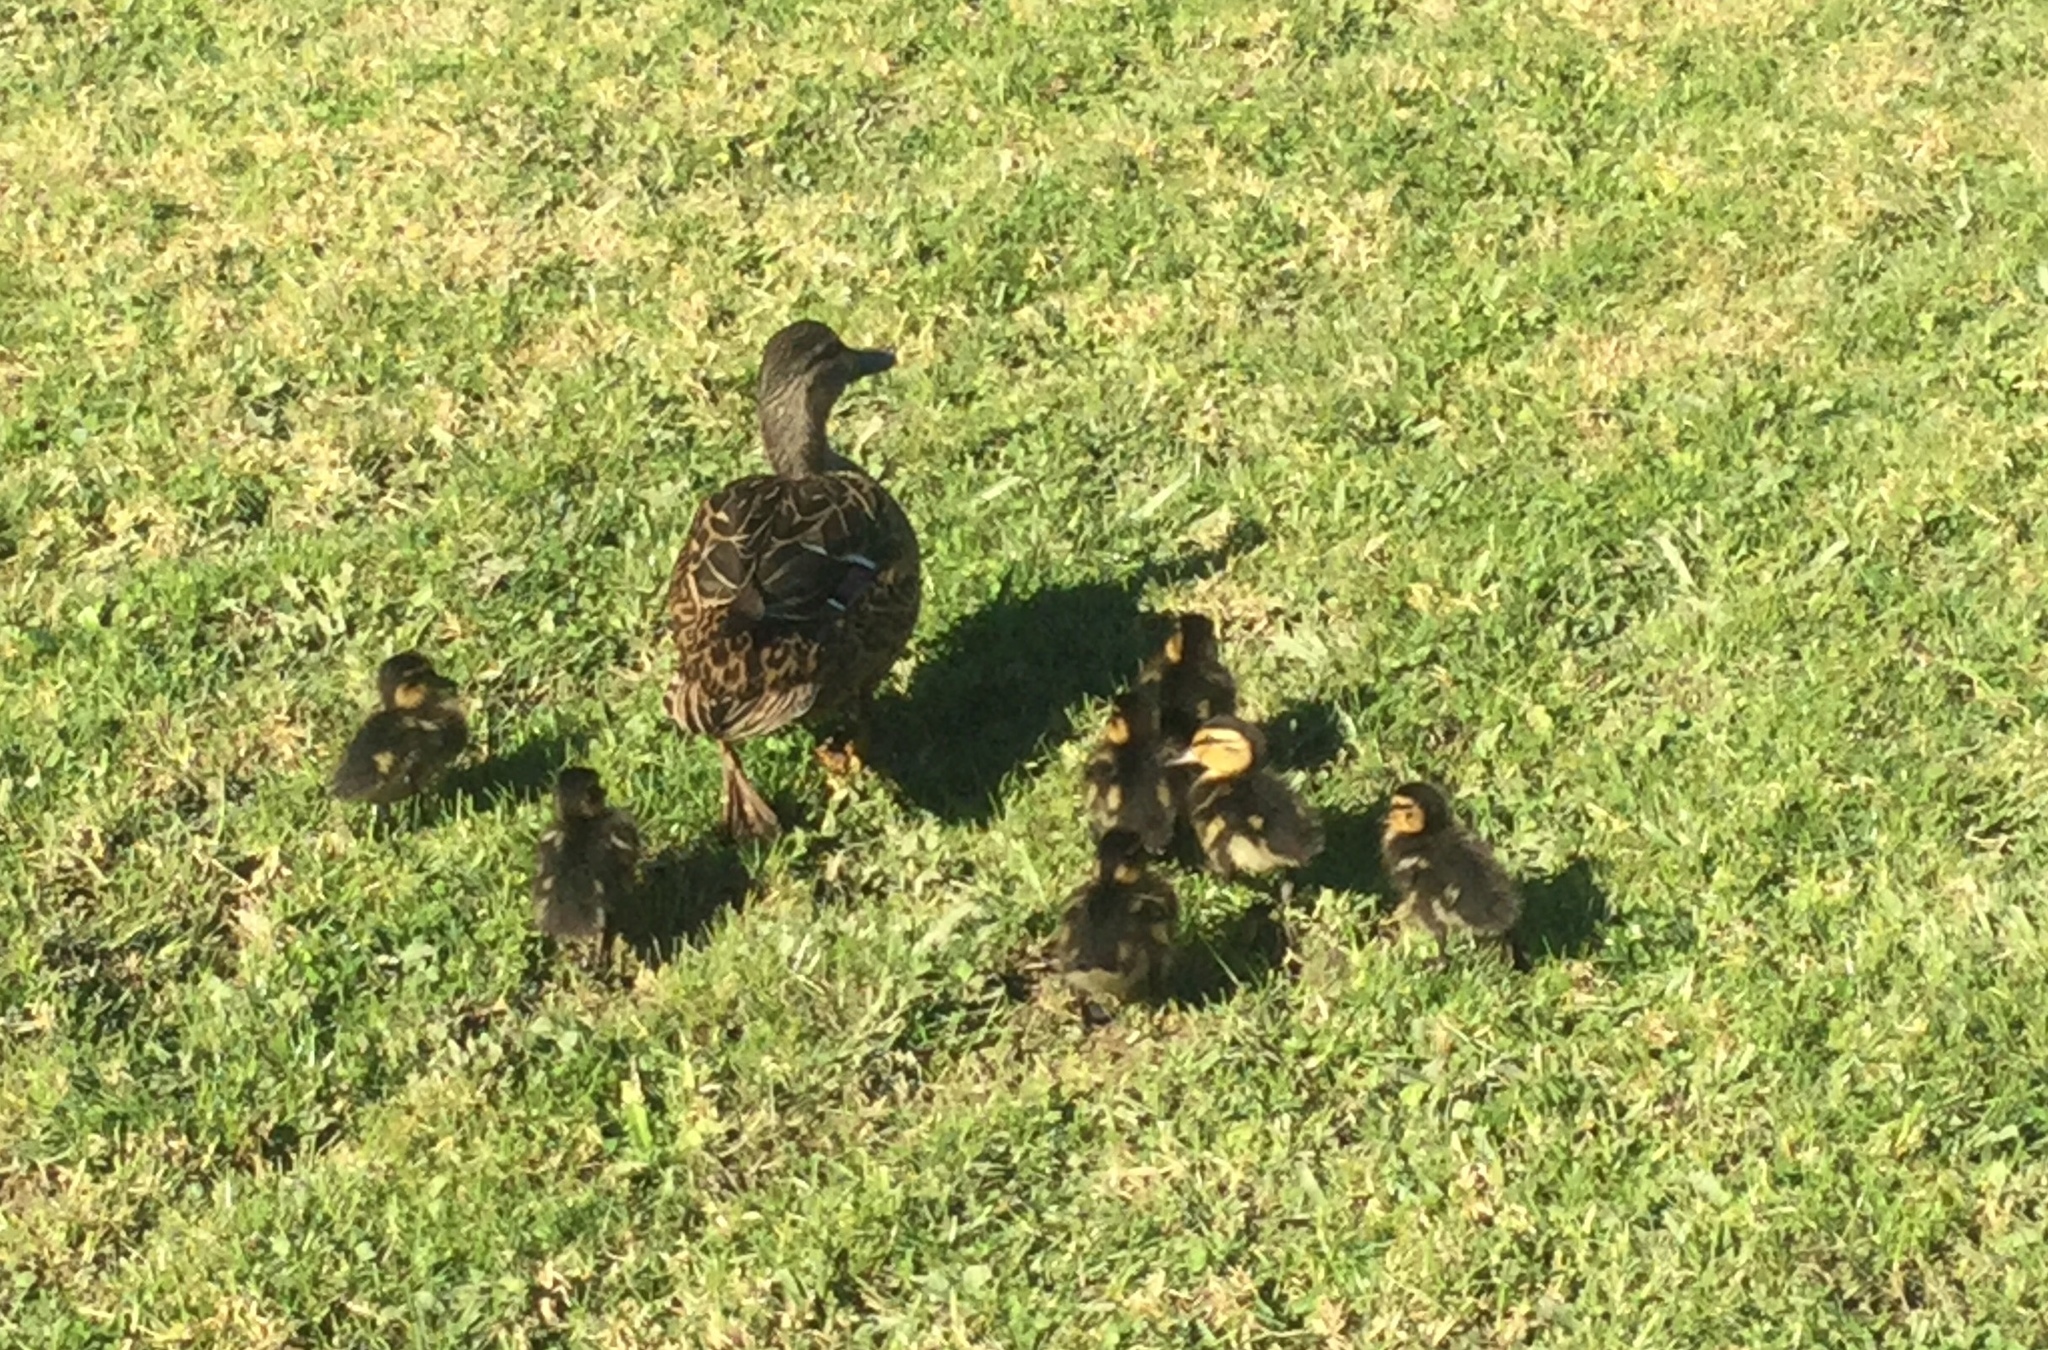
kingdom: Animalia
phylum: Chordata
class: Aves
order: Anseriformes
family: Anatidae
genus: Anas
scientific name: Anas platyrhynchos
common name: Mallard
